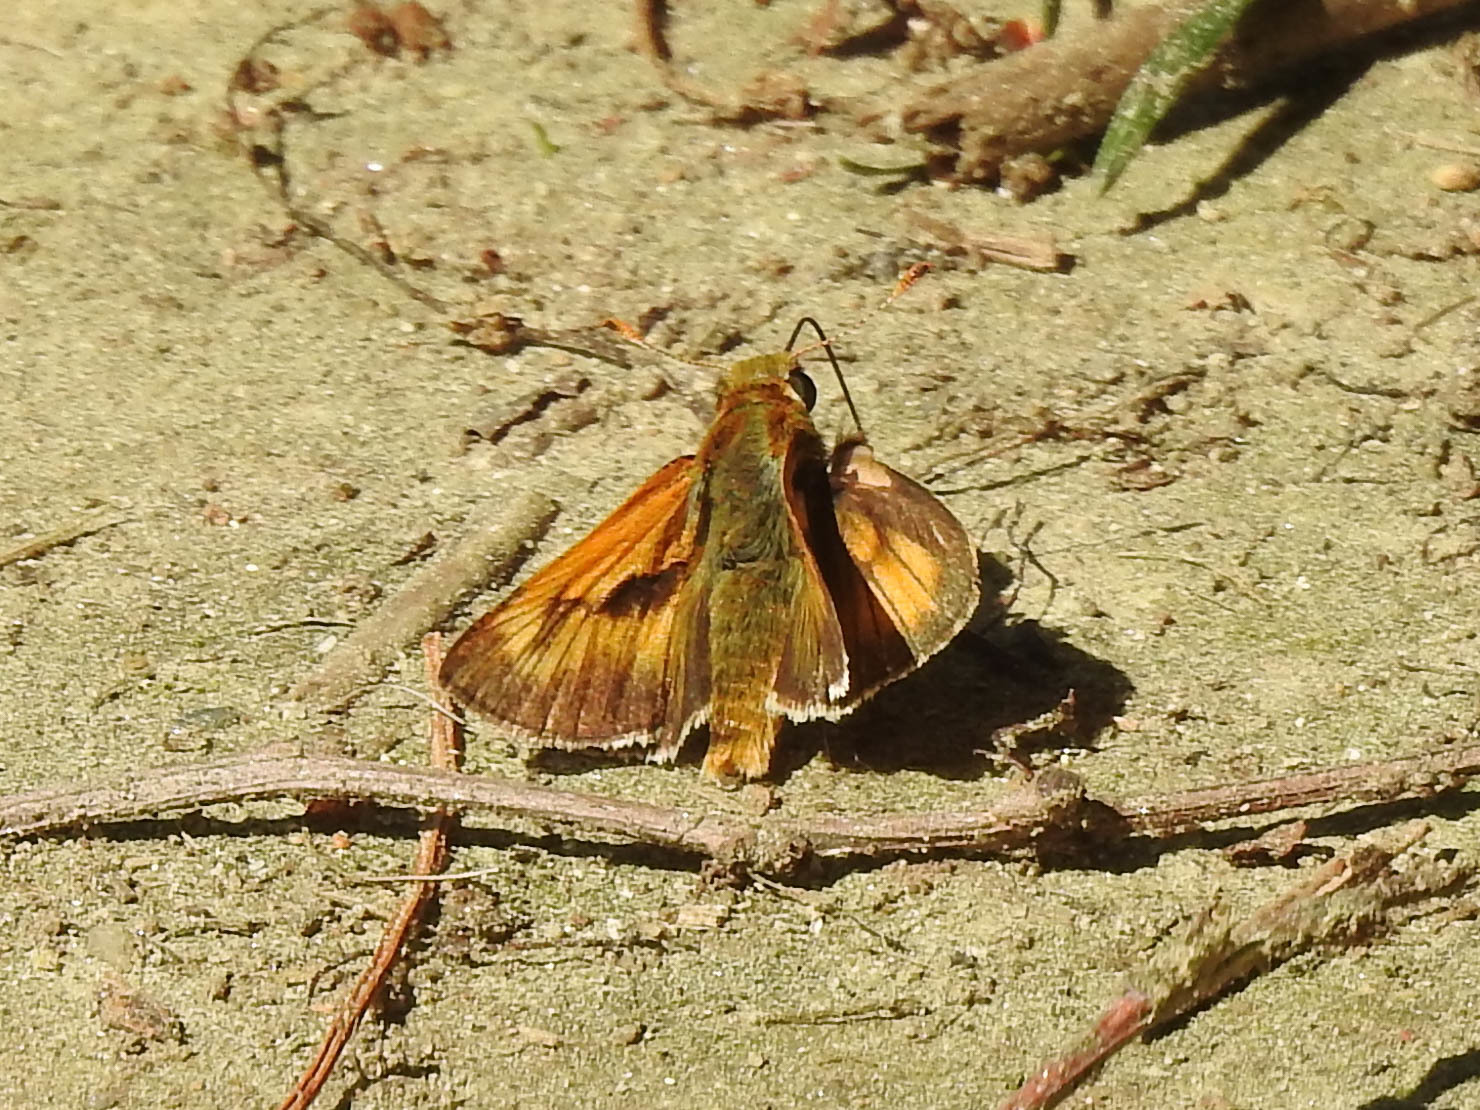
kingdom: Animalia
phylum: Arthropoda
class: Insecta
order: Lepidoptera
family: Hesperiidae
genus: Polites
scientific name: Polites mystic
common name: Long dash
